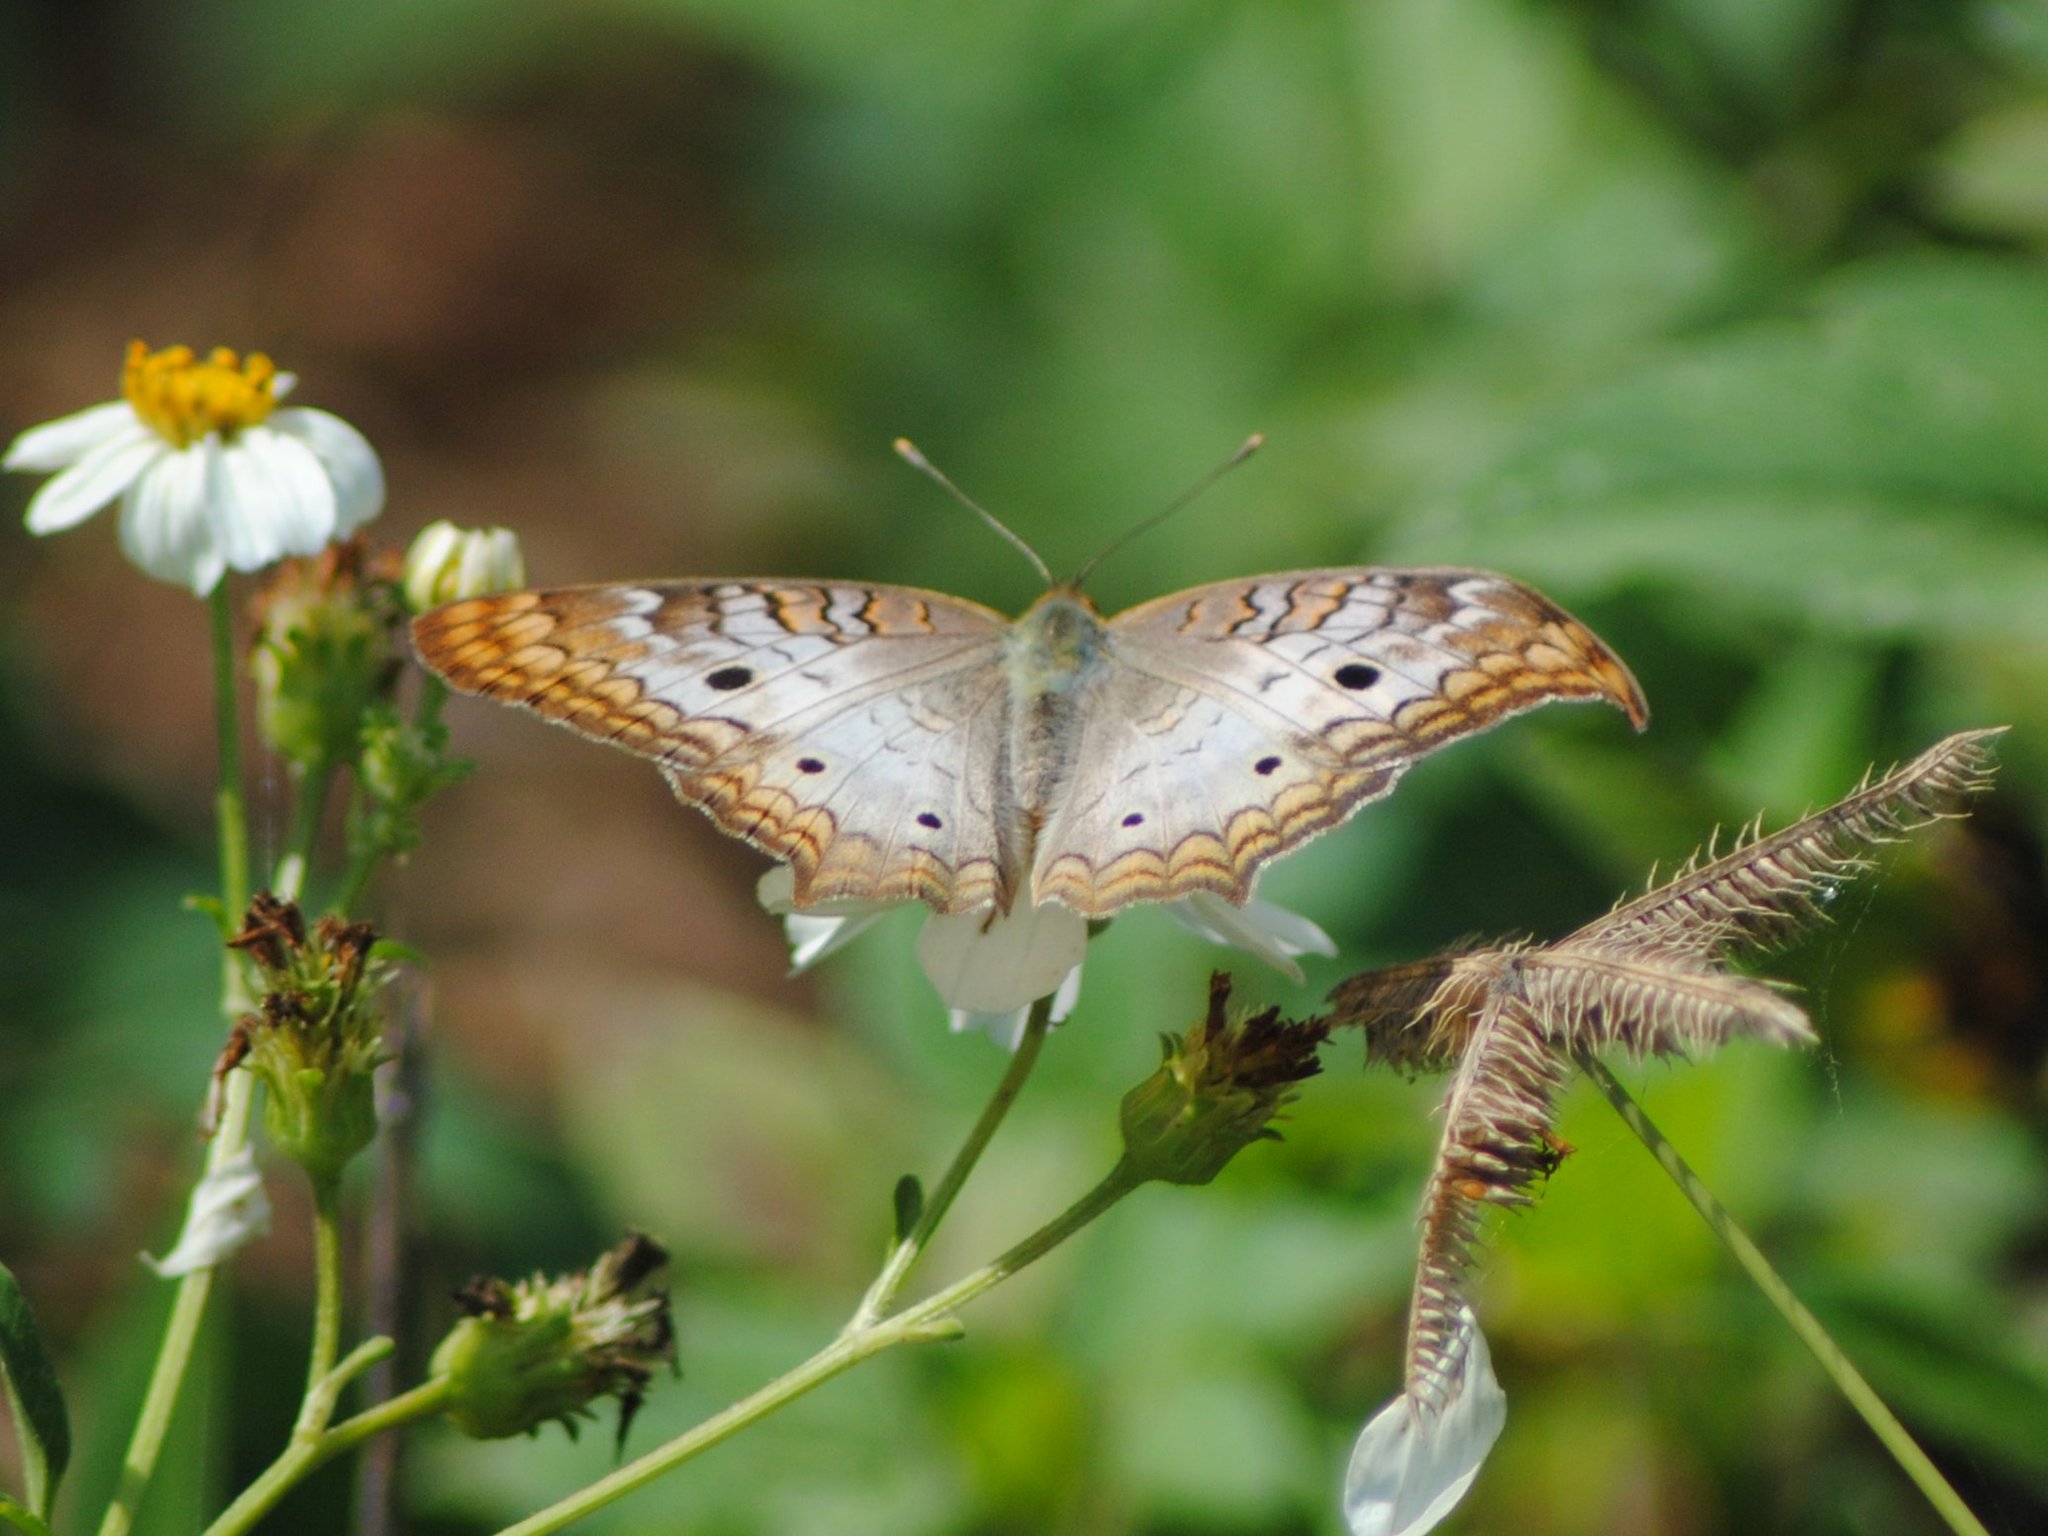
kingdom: Animalia
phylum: Arthropoda
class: Insecta
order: Lepidoptera
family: Nymphalidae
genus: Anartia
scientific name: Anartia jatrophae
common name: White peacock
